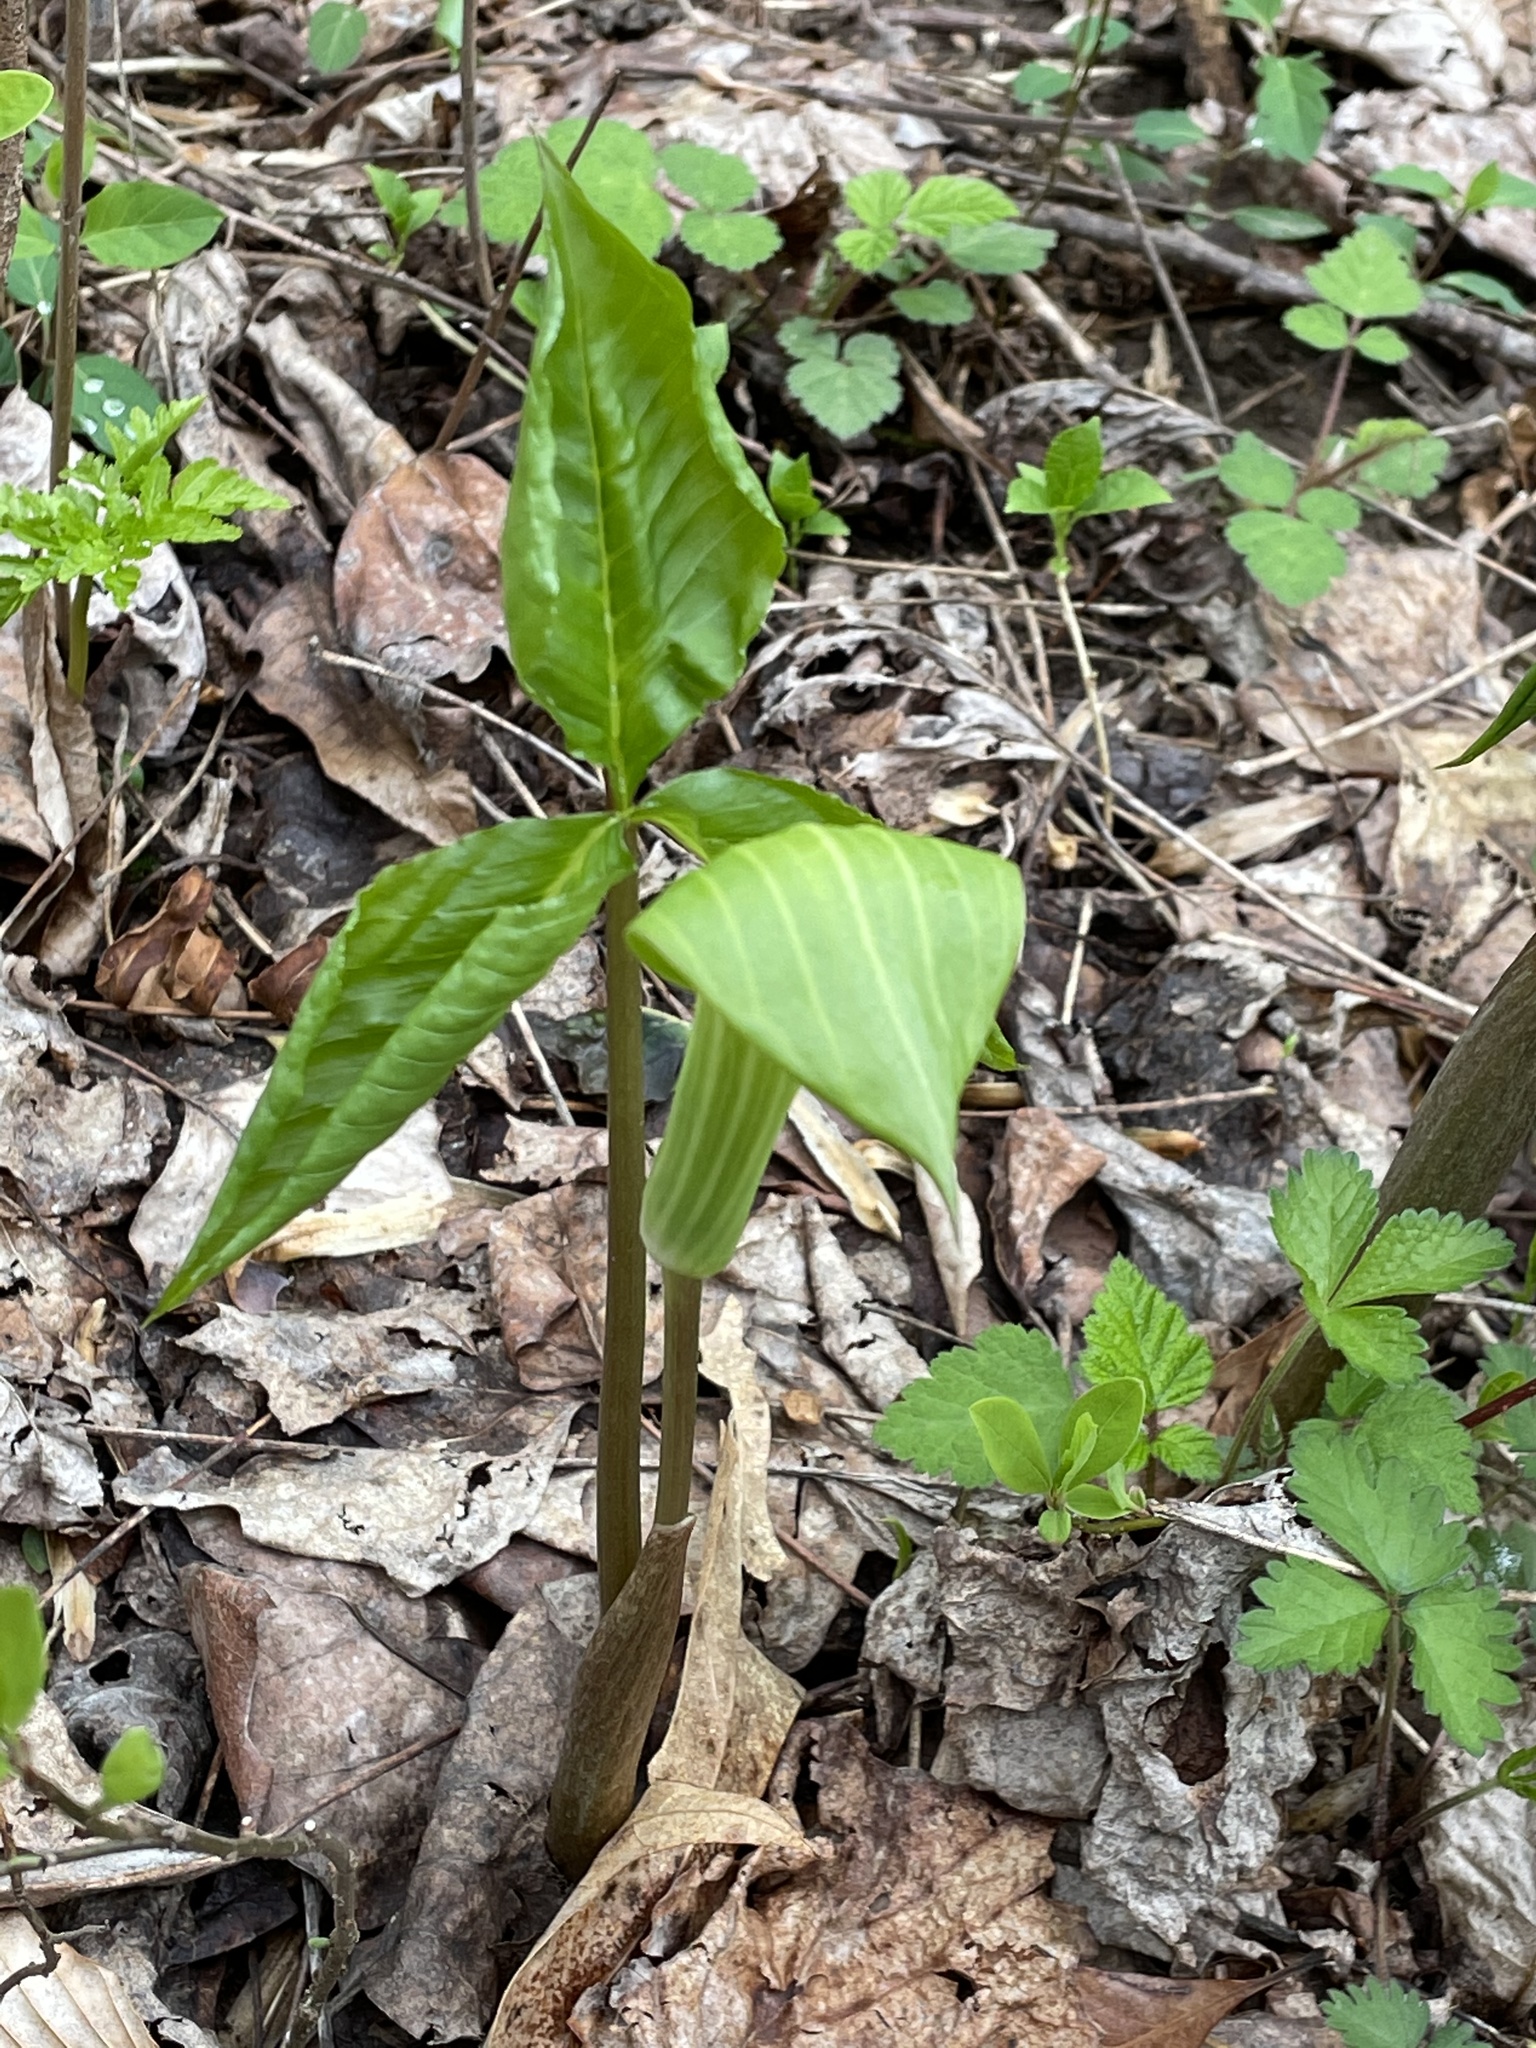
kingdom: Plantae
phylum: Tracheophyta
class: Liliopsida
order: Alismatales
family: Araceae
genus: Arisaema
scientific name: Arisaema triphyllum
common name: Jack-in-the-pulpit
